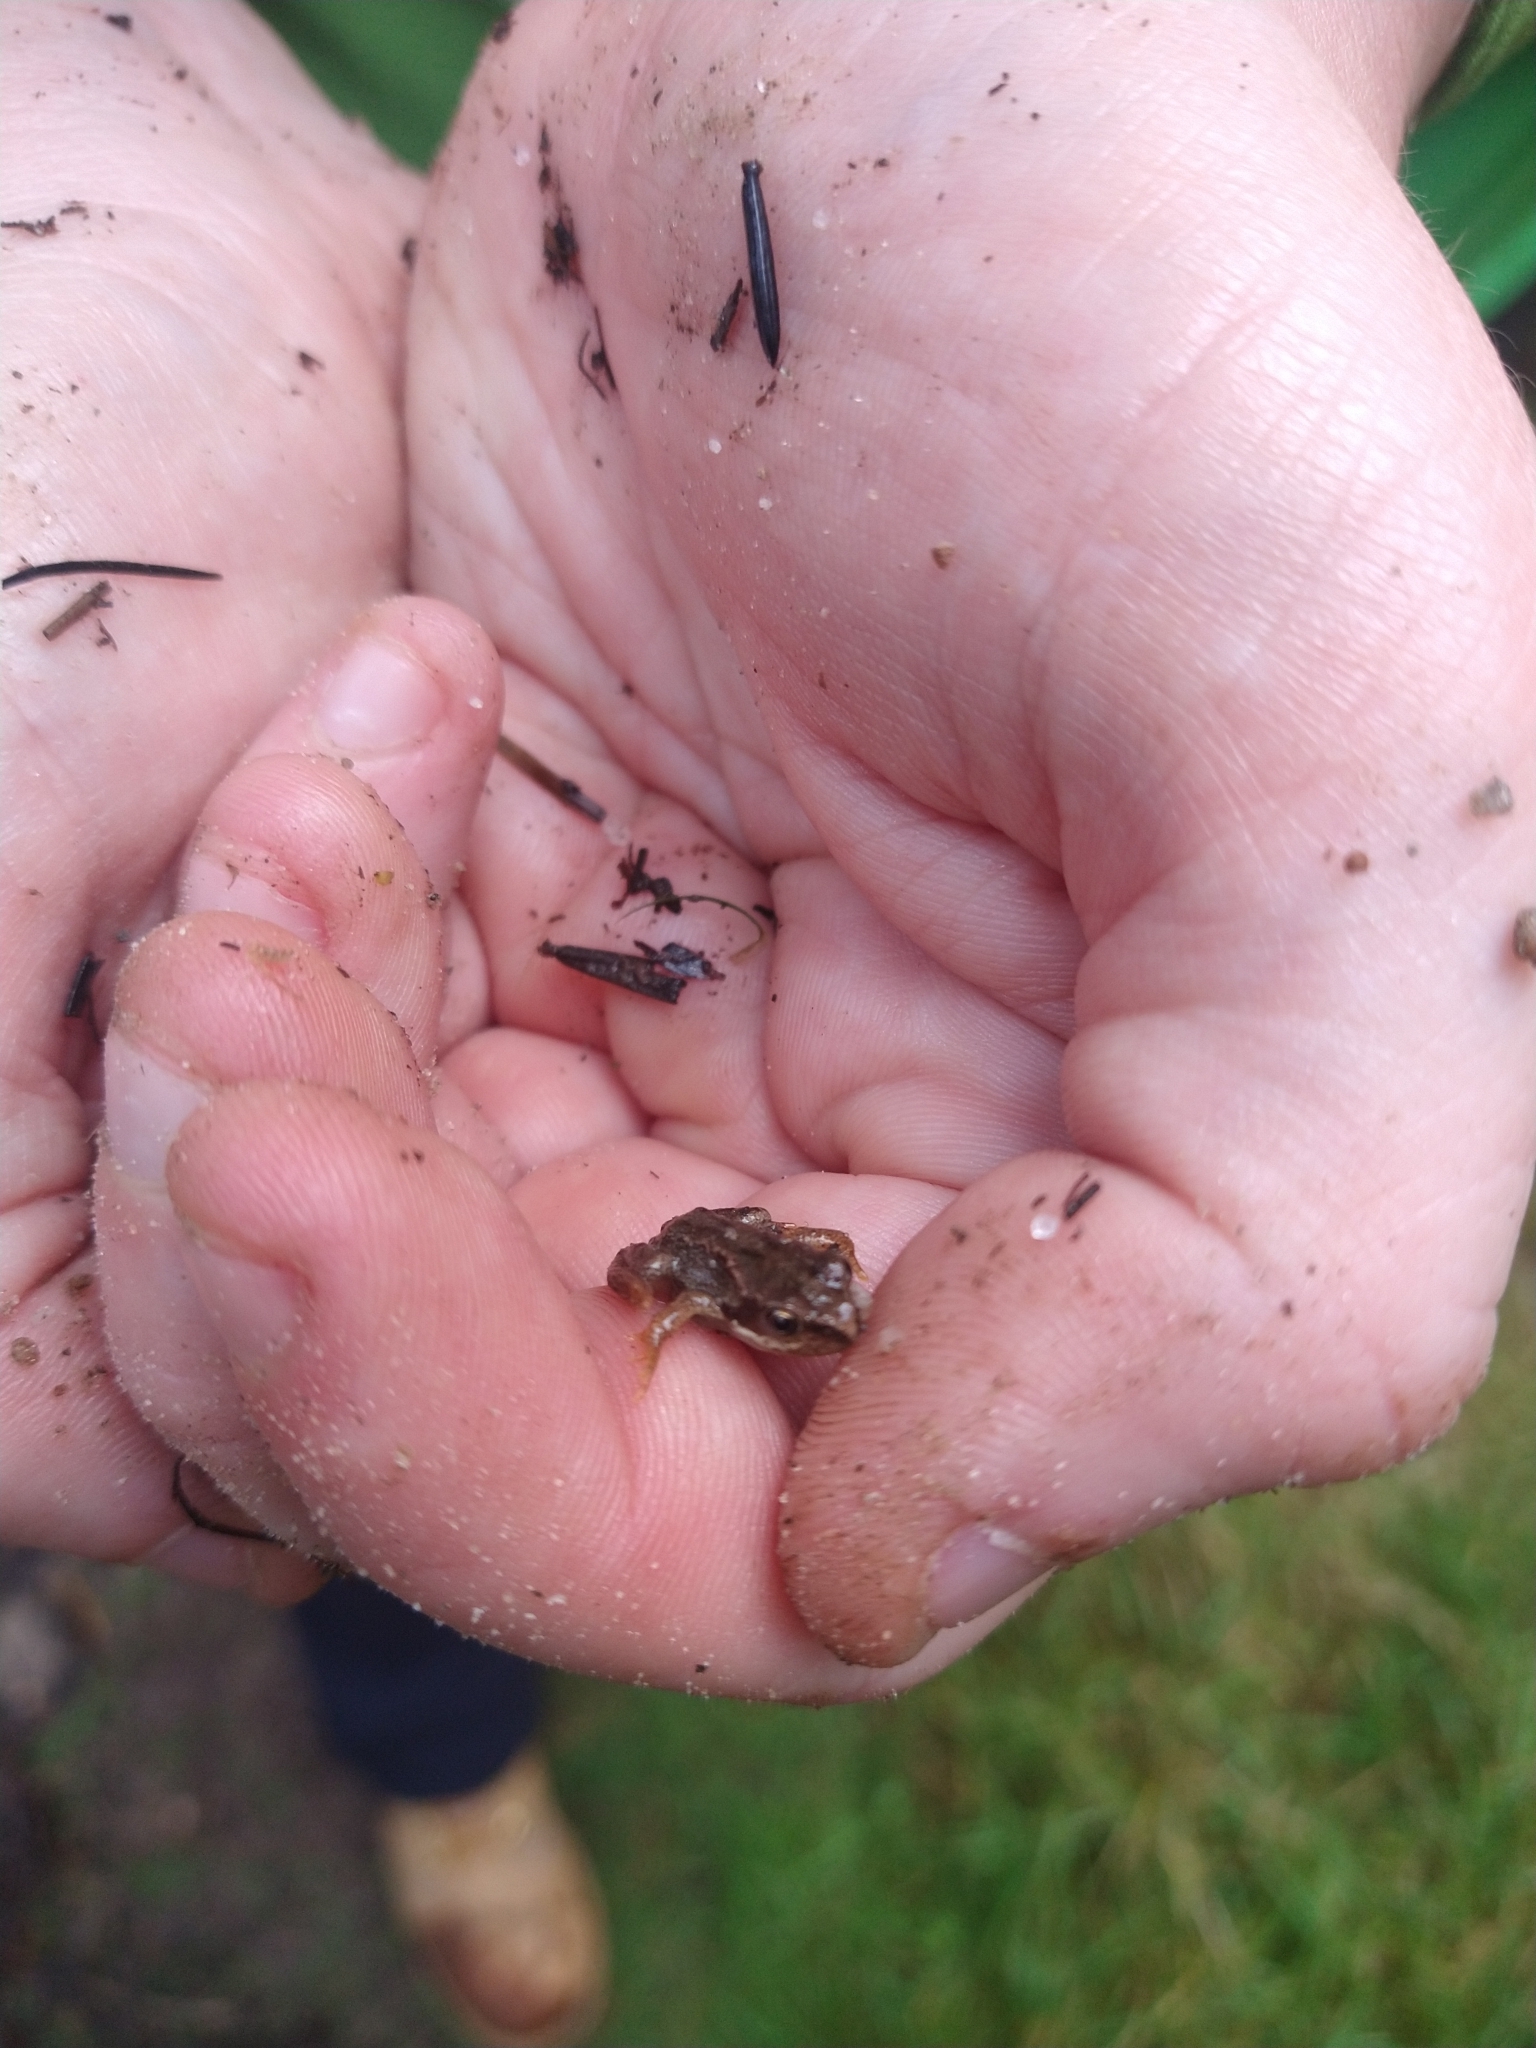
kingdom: Animalia
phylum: Chordata
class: Amphibia
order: Anura
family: Ranidae
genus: Rana
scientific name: Rana temporaria
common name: Common frog
